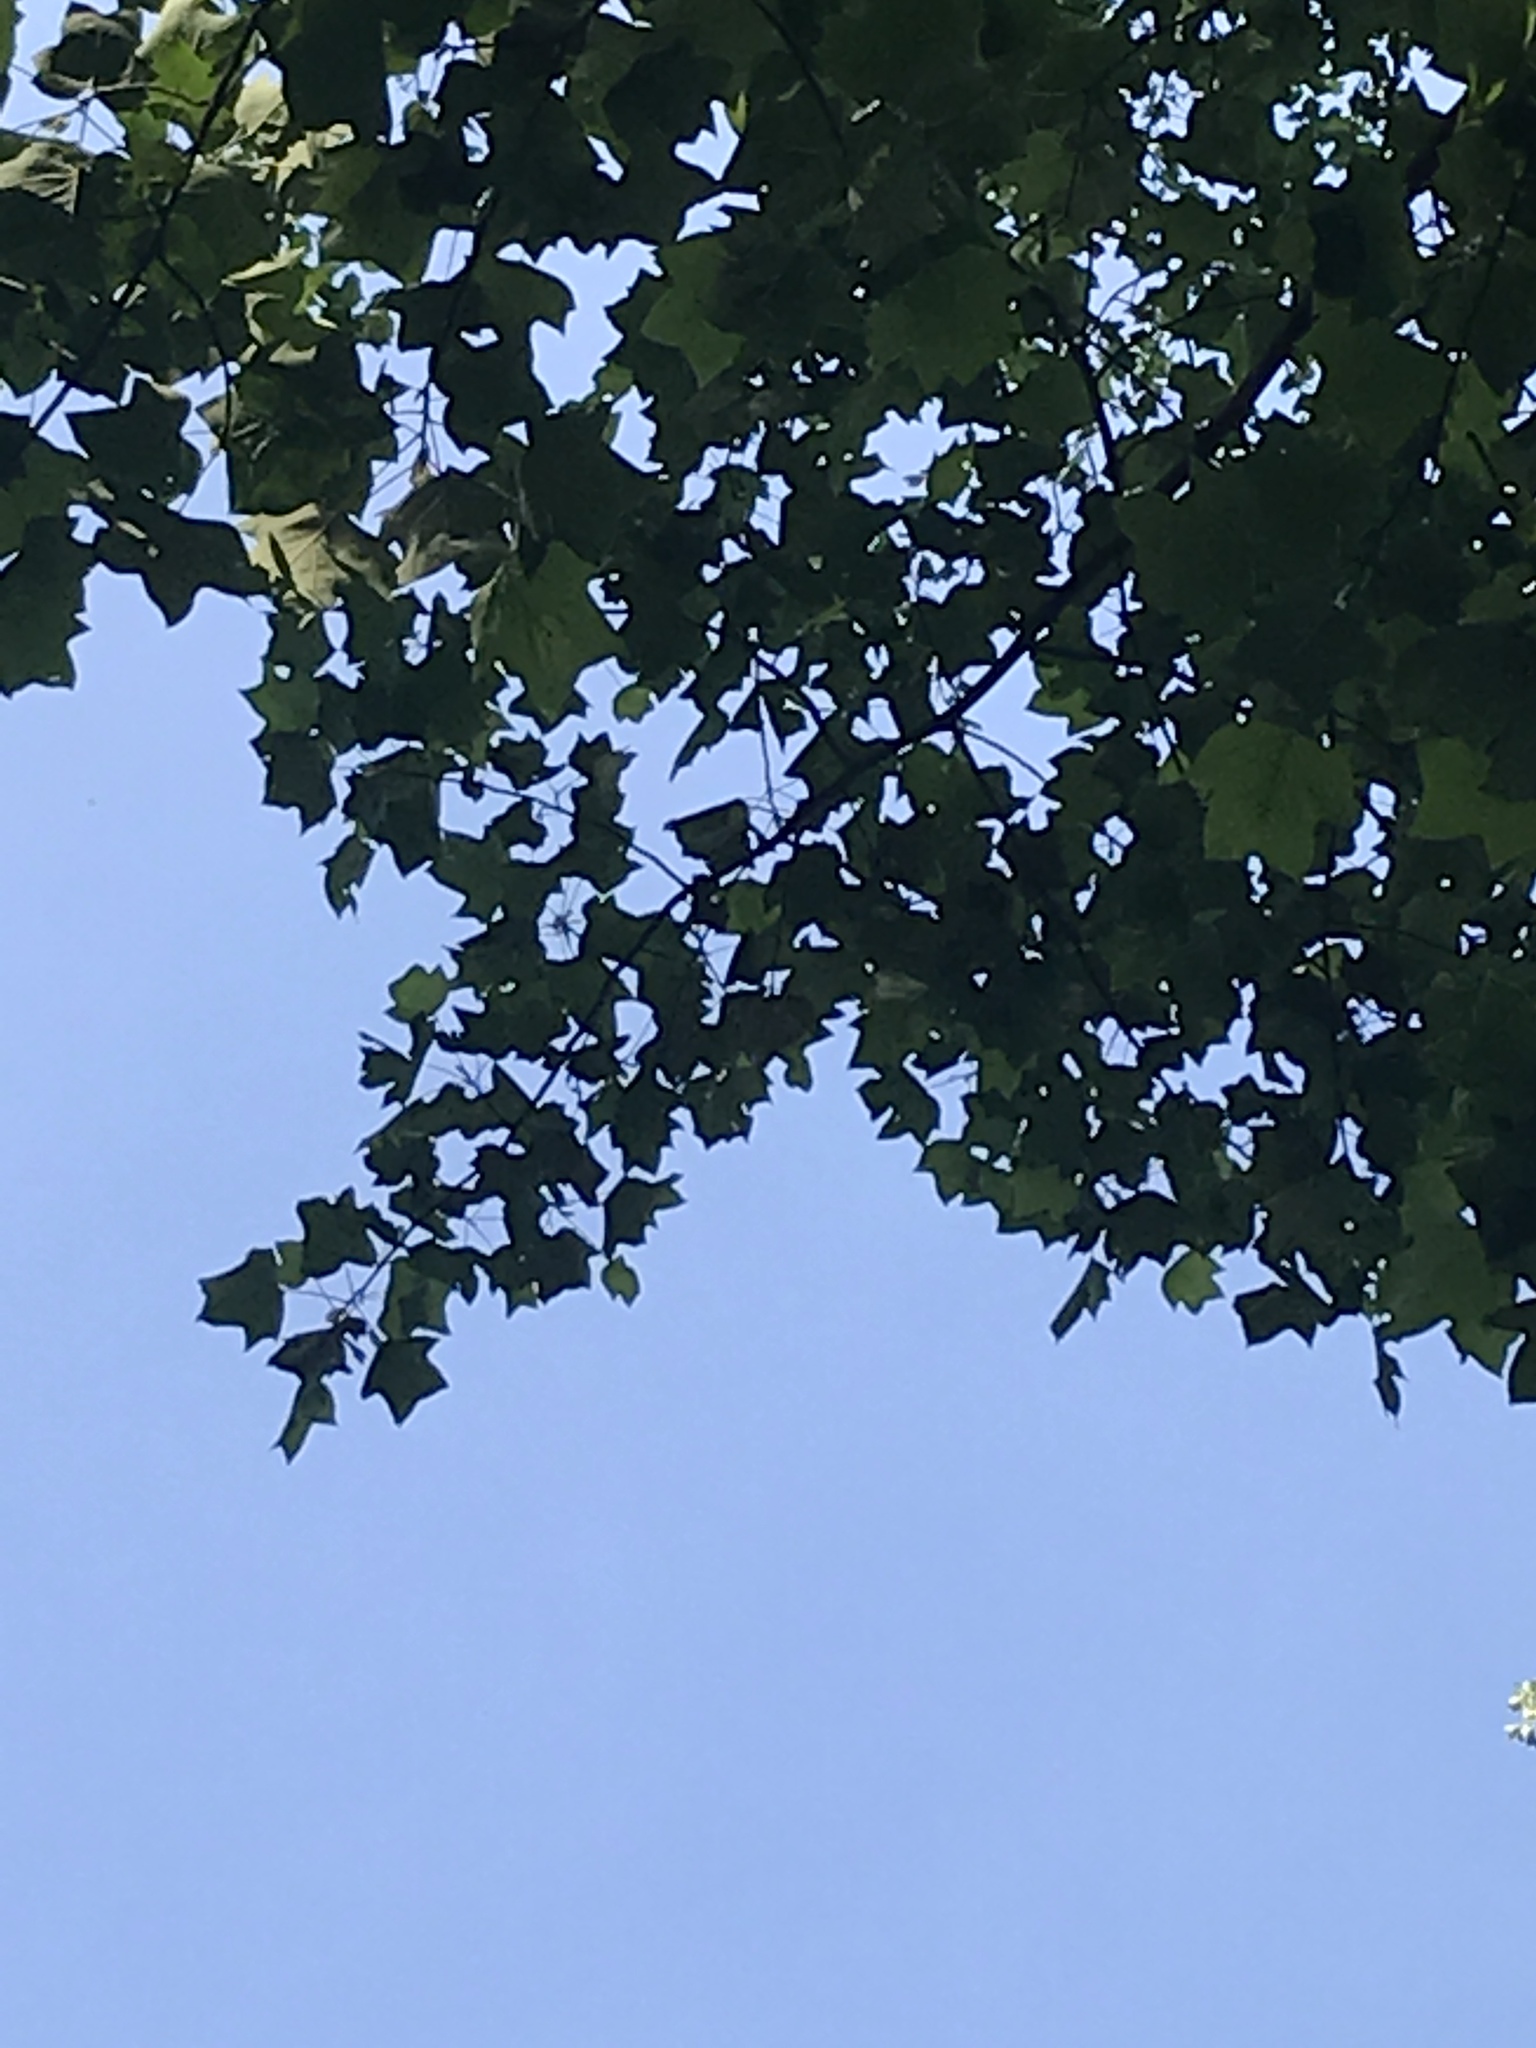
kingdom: Plantae
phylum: Tracheophyta
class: Magnoliopsida
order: Magnoliales
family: Magnoliaceae
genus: Liriodendron
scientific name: Liriodendron tulipifera
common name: Tulip tree
